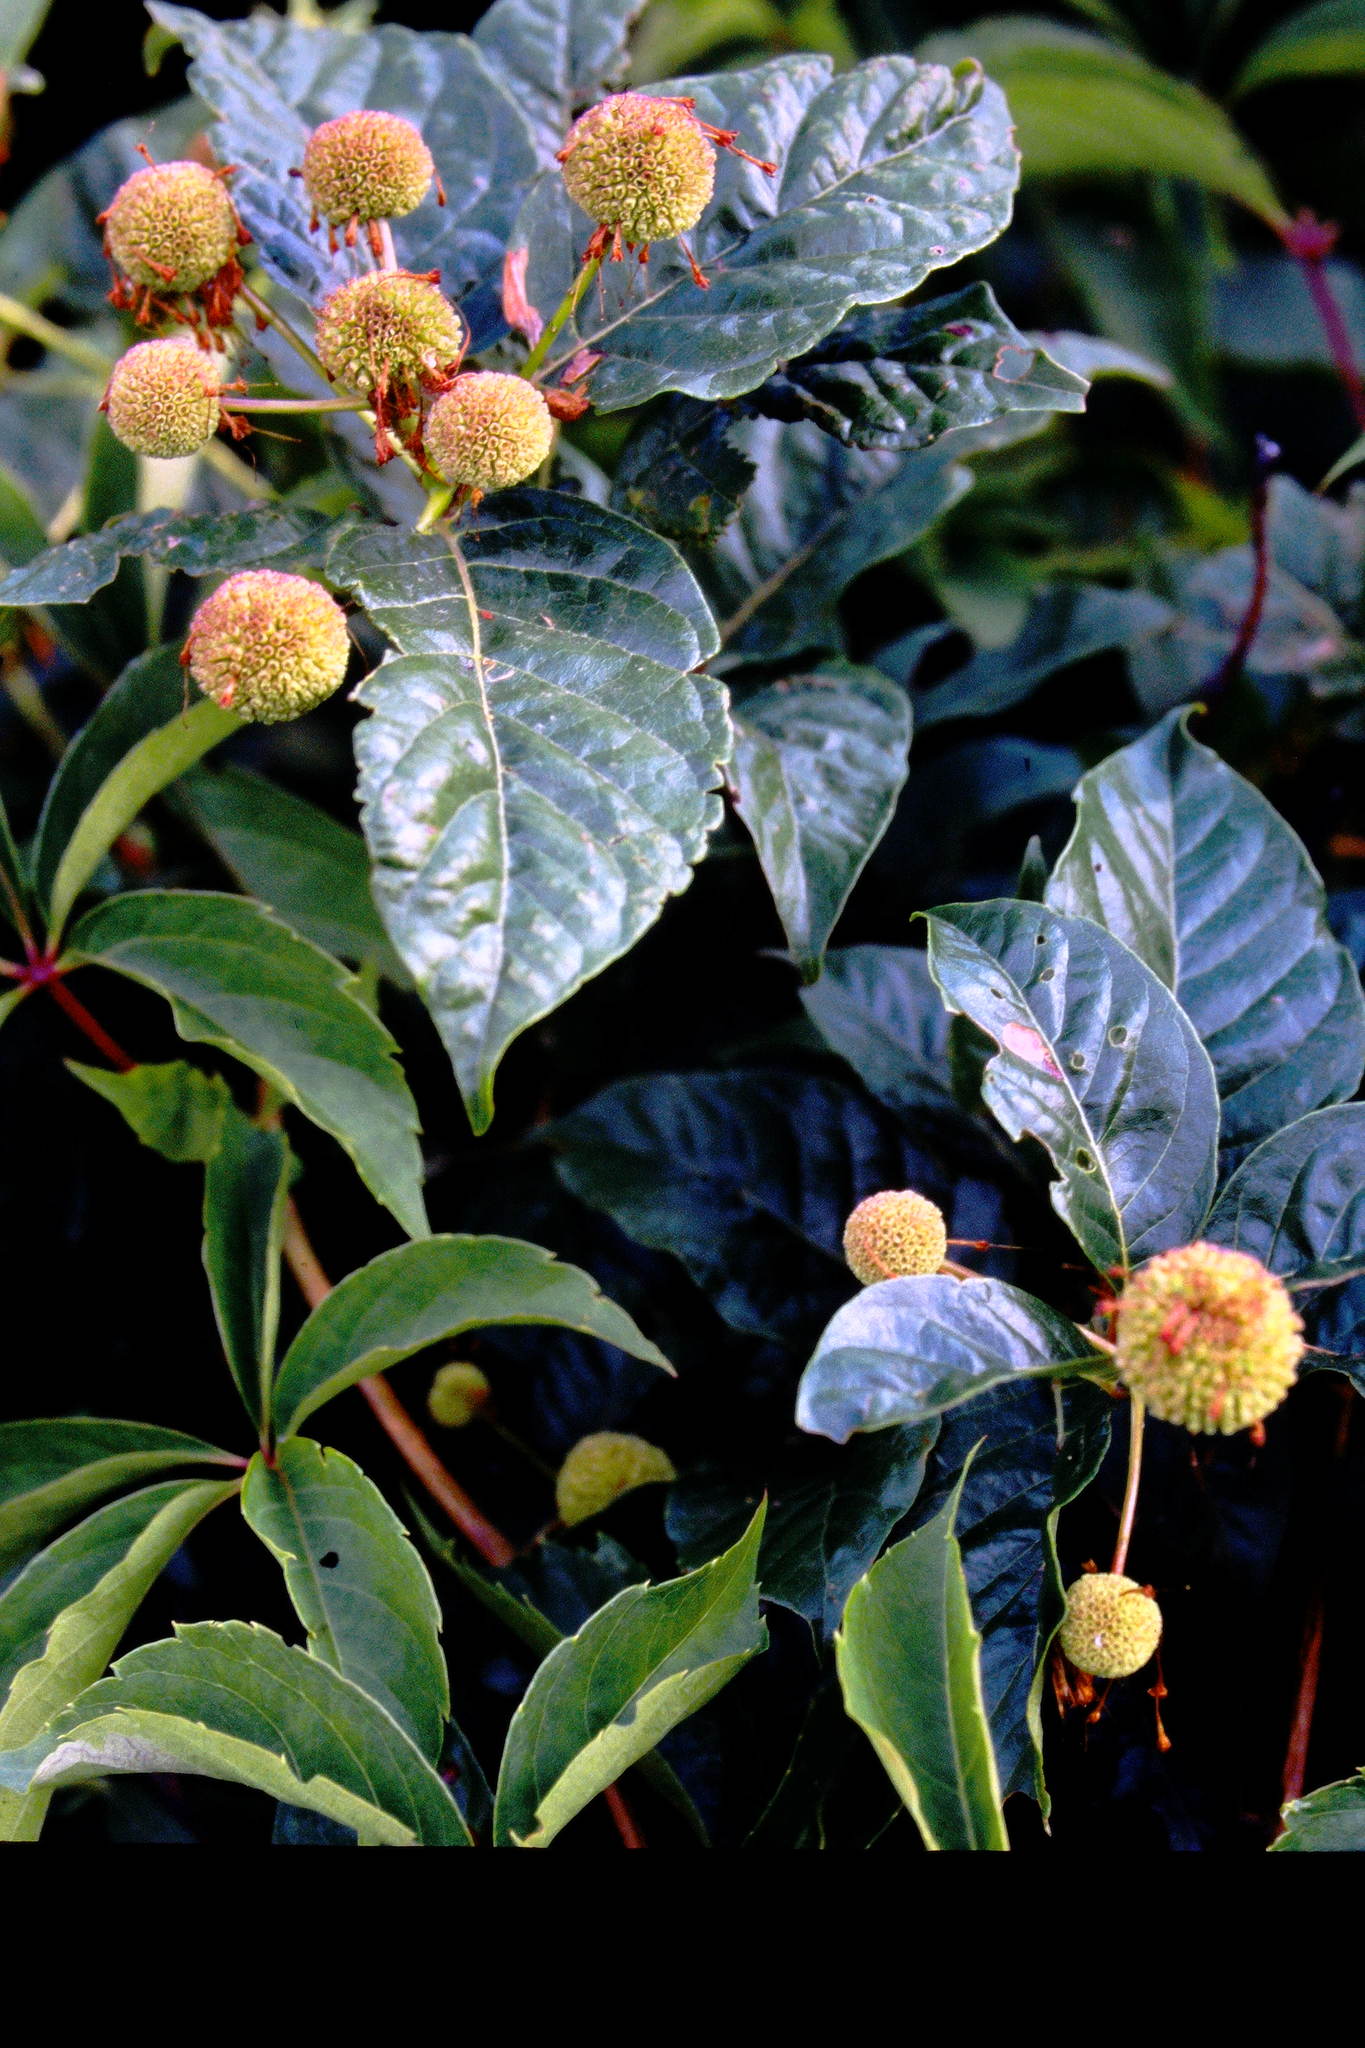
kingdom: Plantae
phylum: Tracheophyta
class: Magnoliopsida
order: Gentianales
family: Rubiaceae
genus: Cephalanthus
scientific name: Cephalanthus occidentalis
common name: Button-willow
